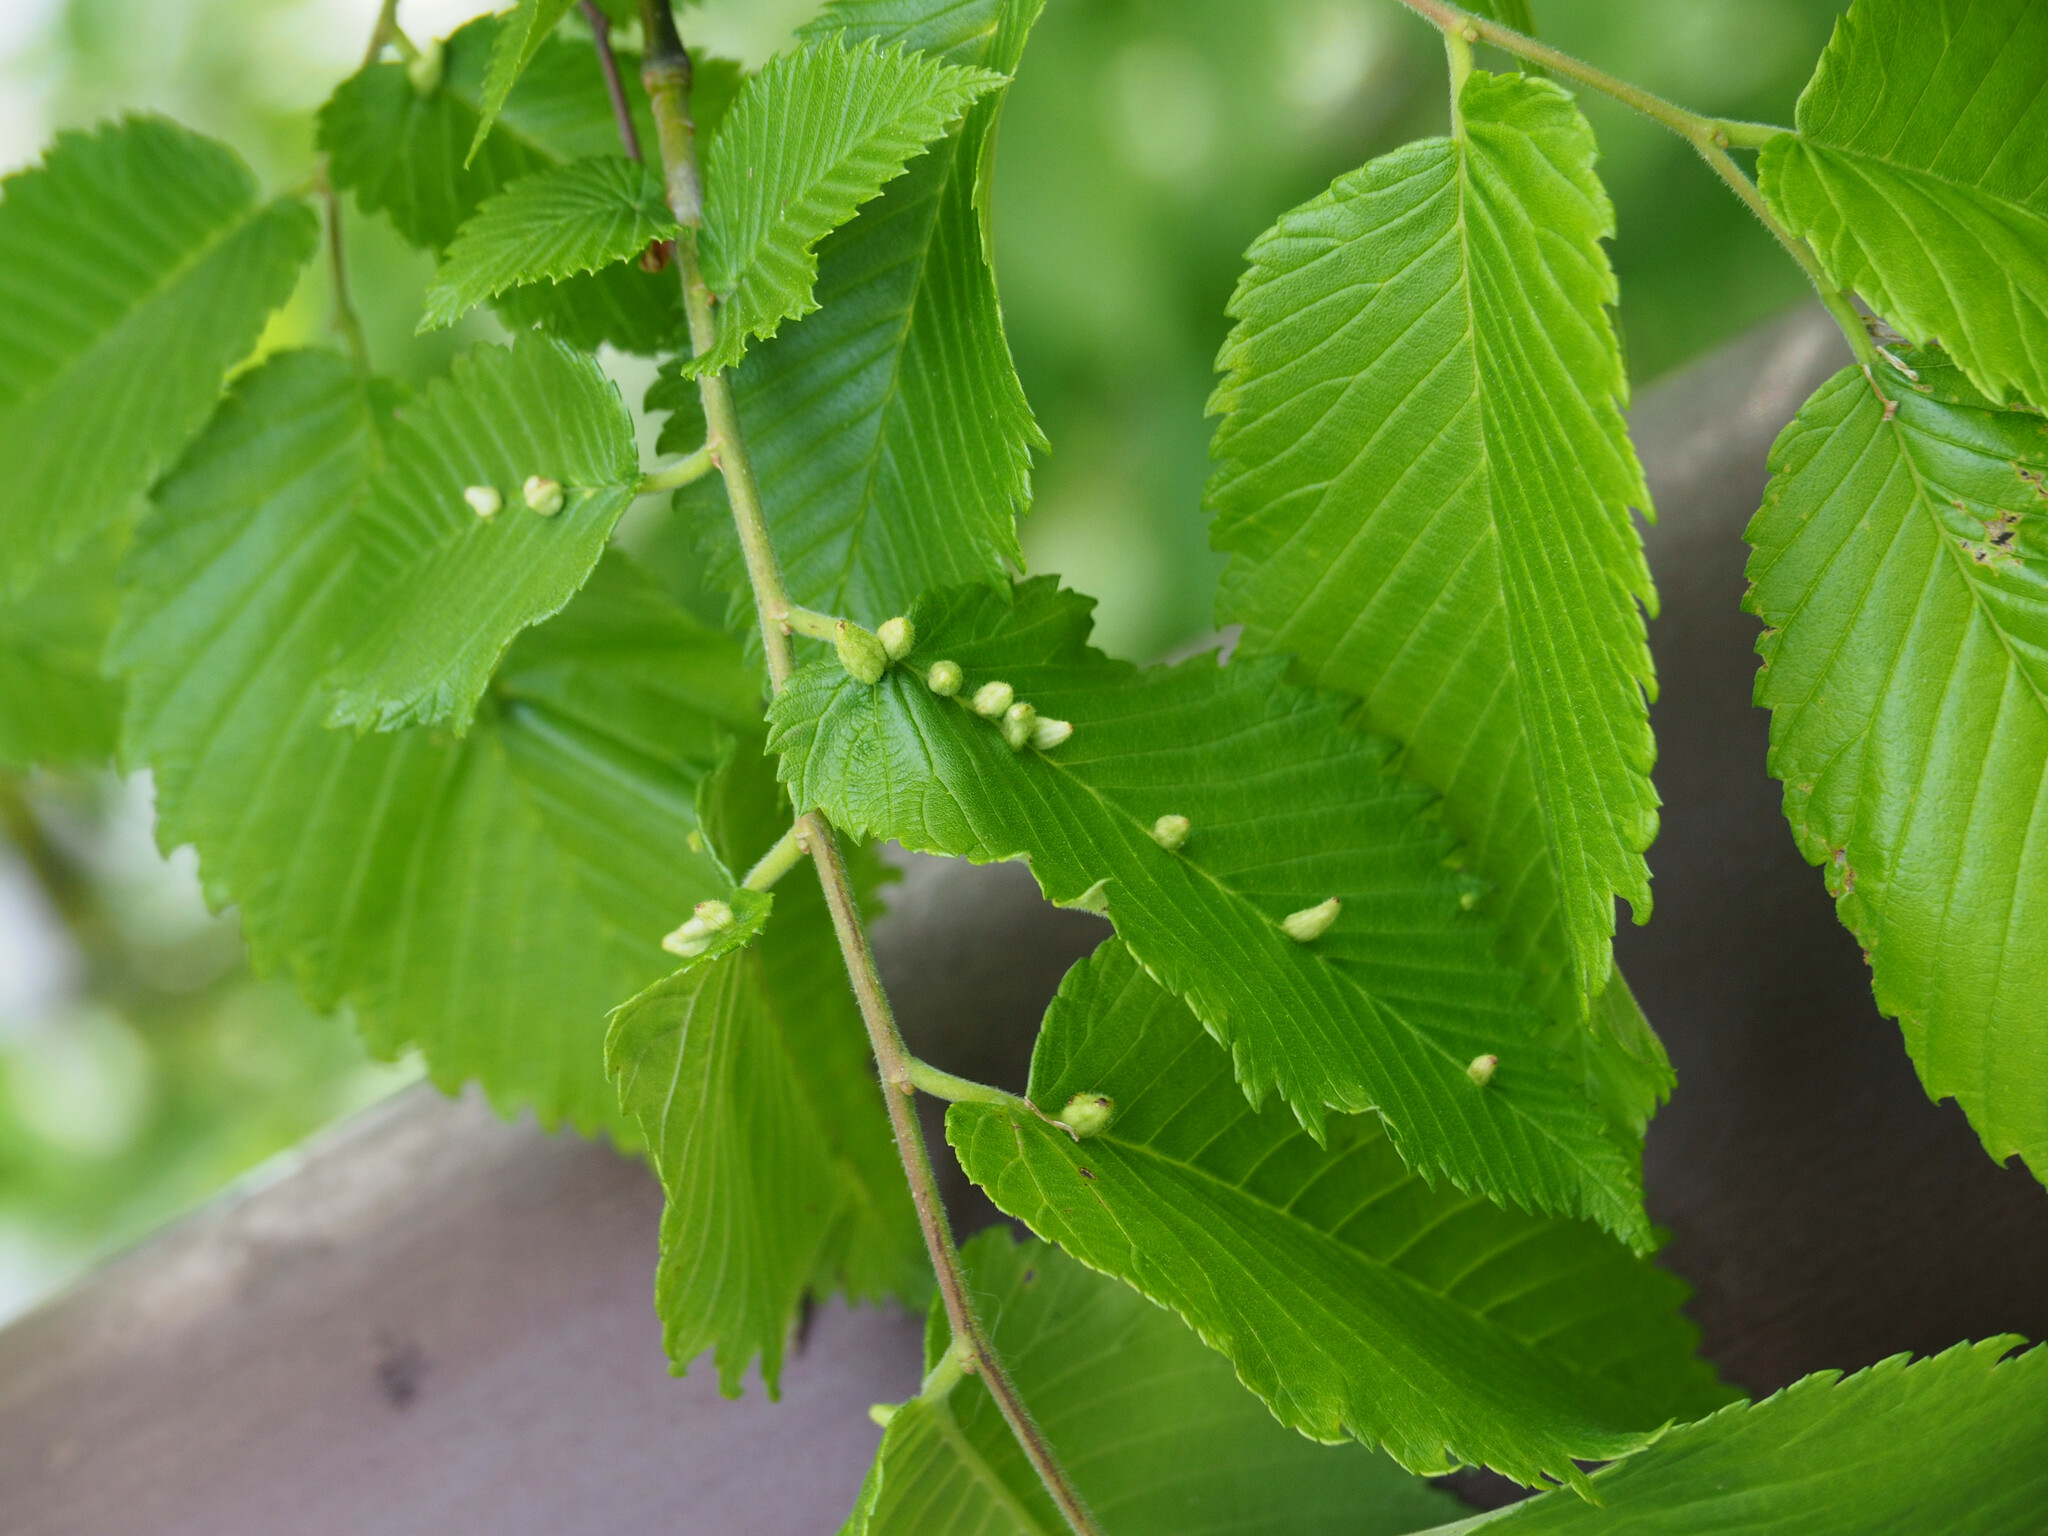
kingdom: Animalia
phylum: Arthropoda
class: Arachnida
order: Trombidiformes
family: Eriophyidae
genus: Aceria
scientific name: Aceria
